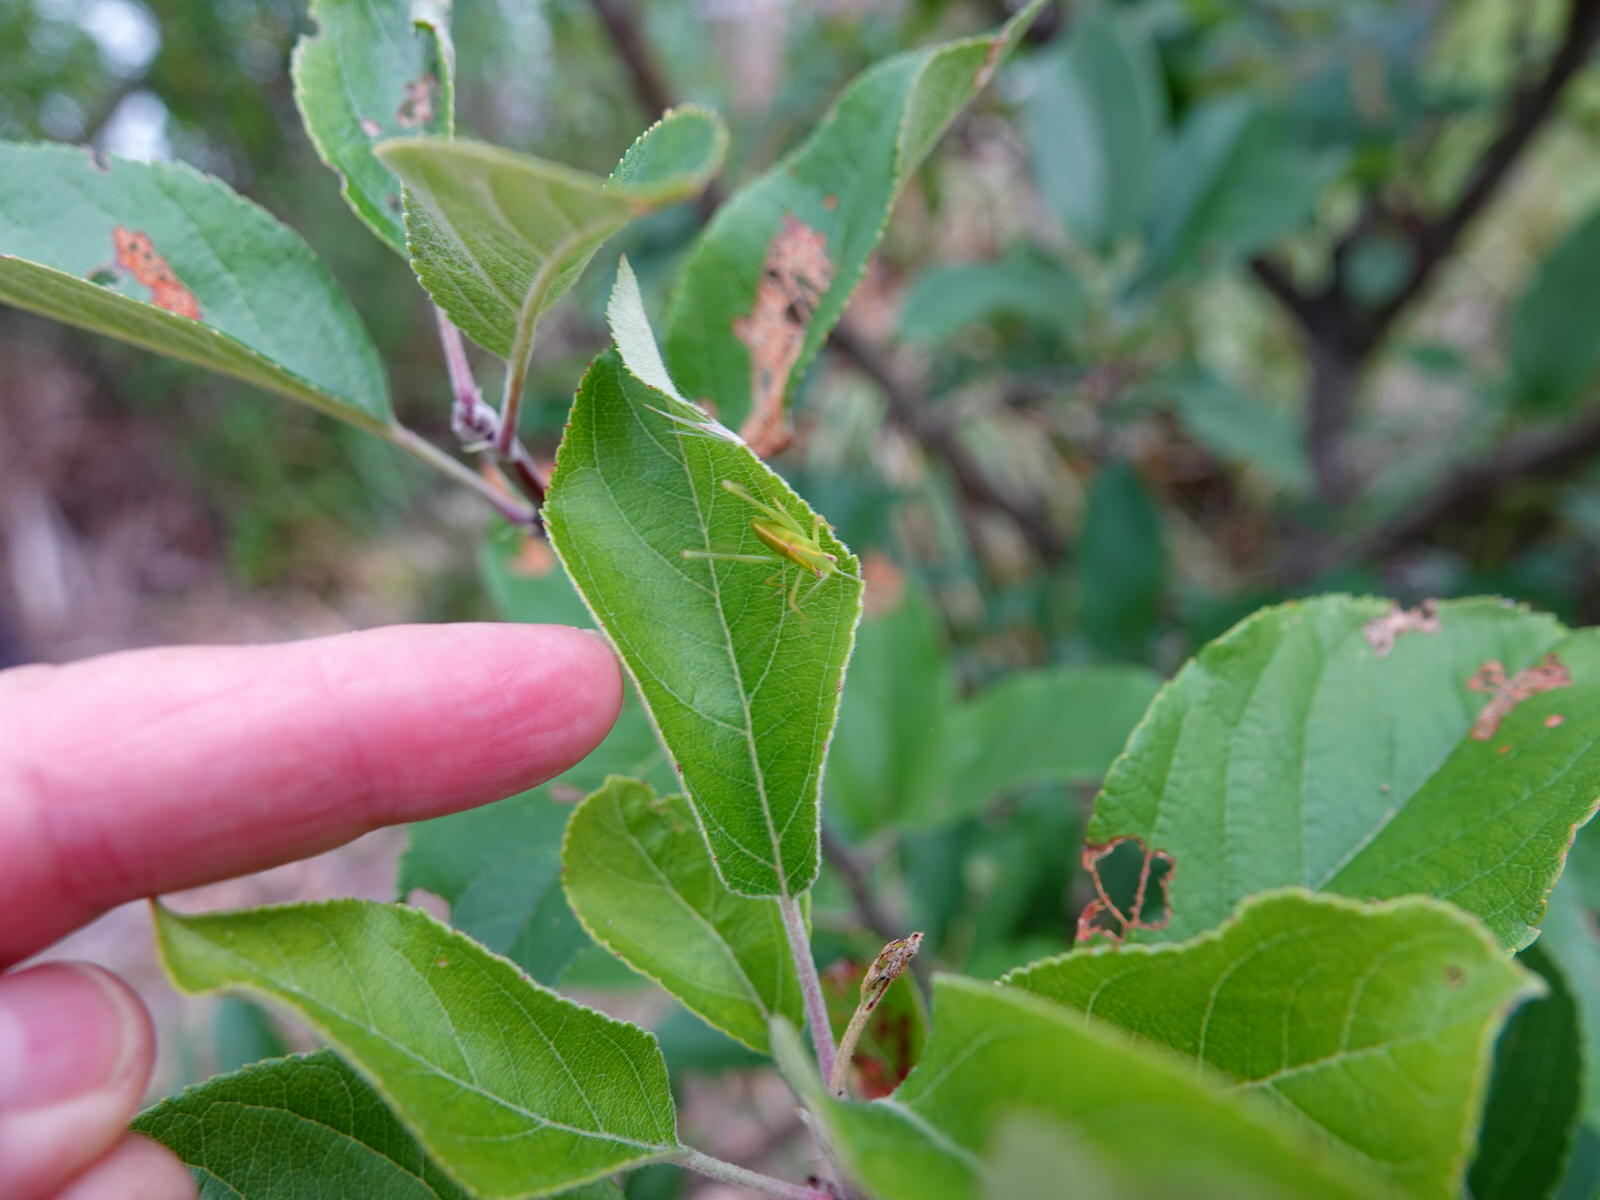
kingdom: Animalia
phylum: Arthropoda
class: Insecta
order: Orthoptera
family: Tettigoniidae
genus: Caedicia
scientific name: Caedicia simplex
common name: Common garden katydid
